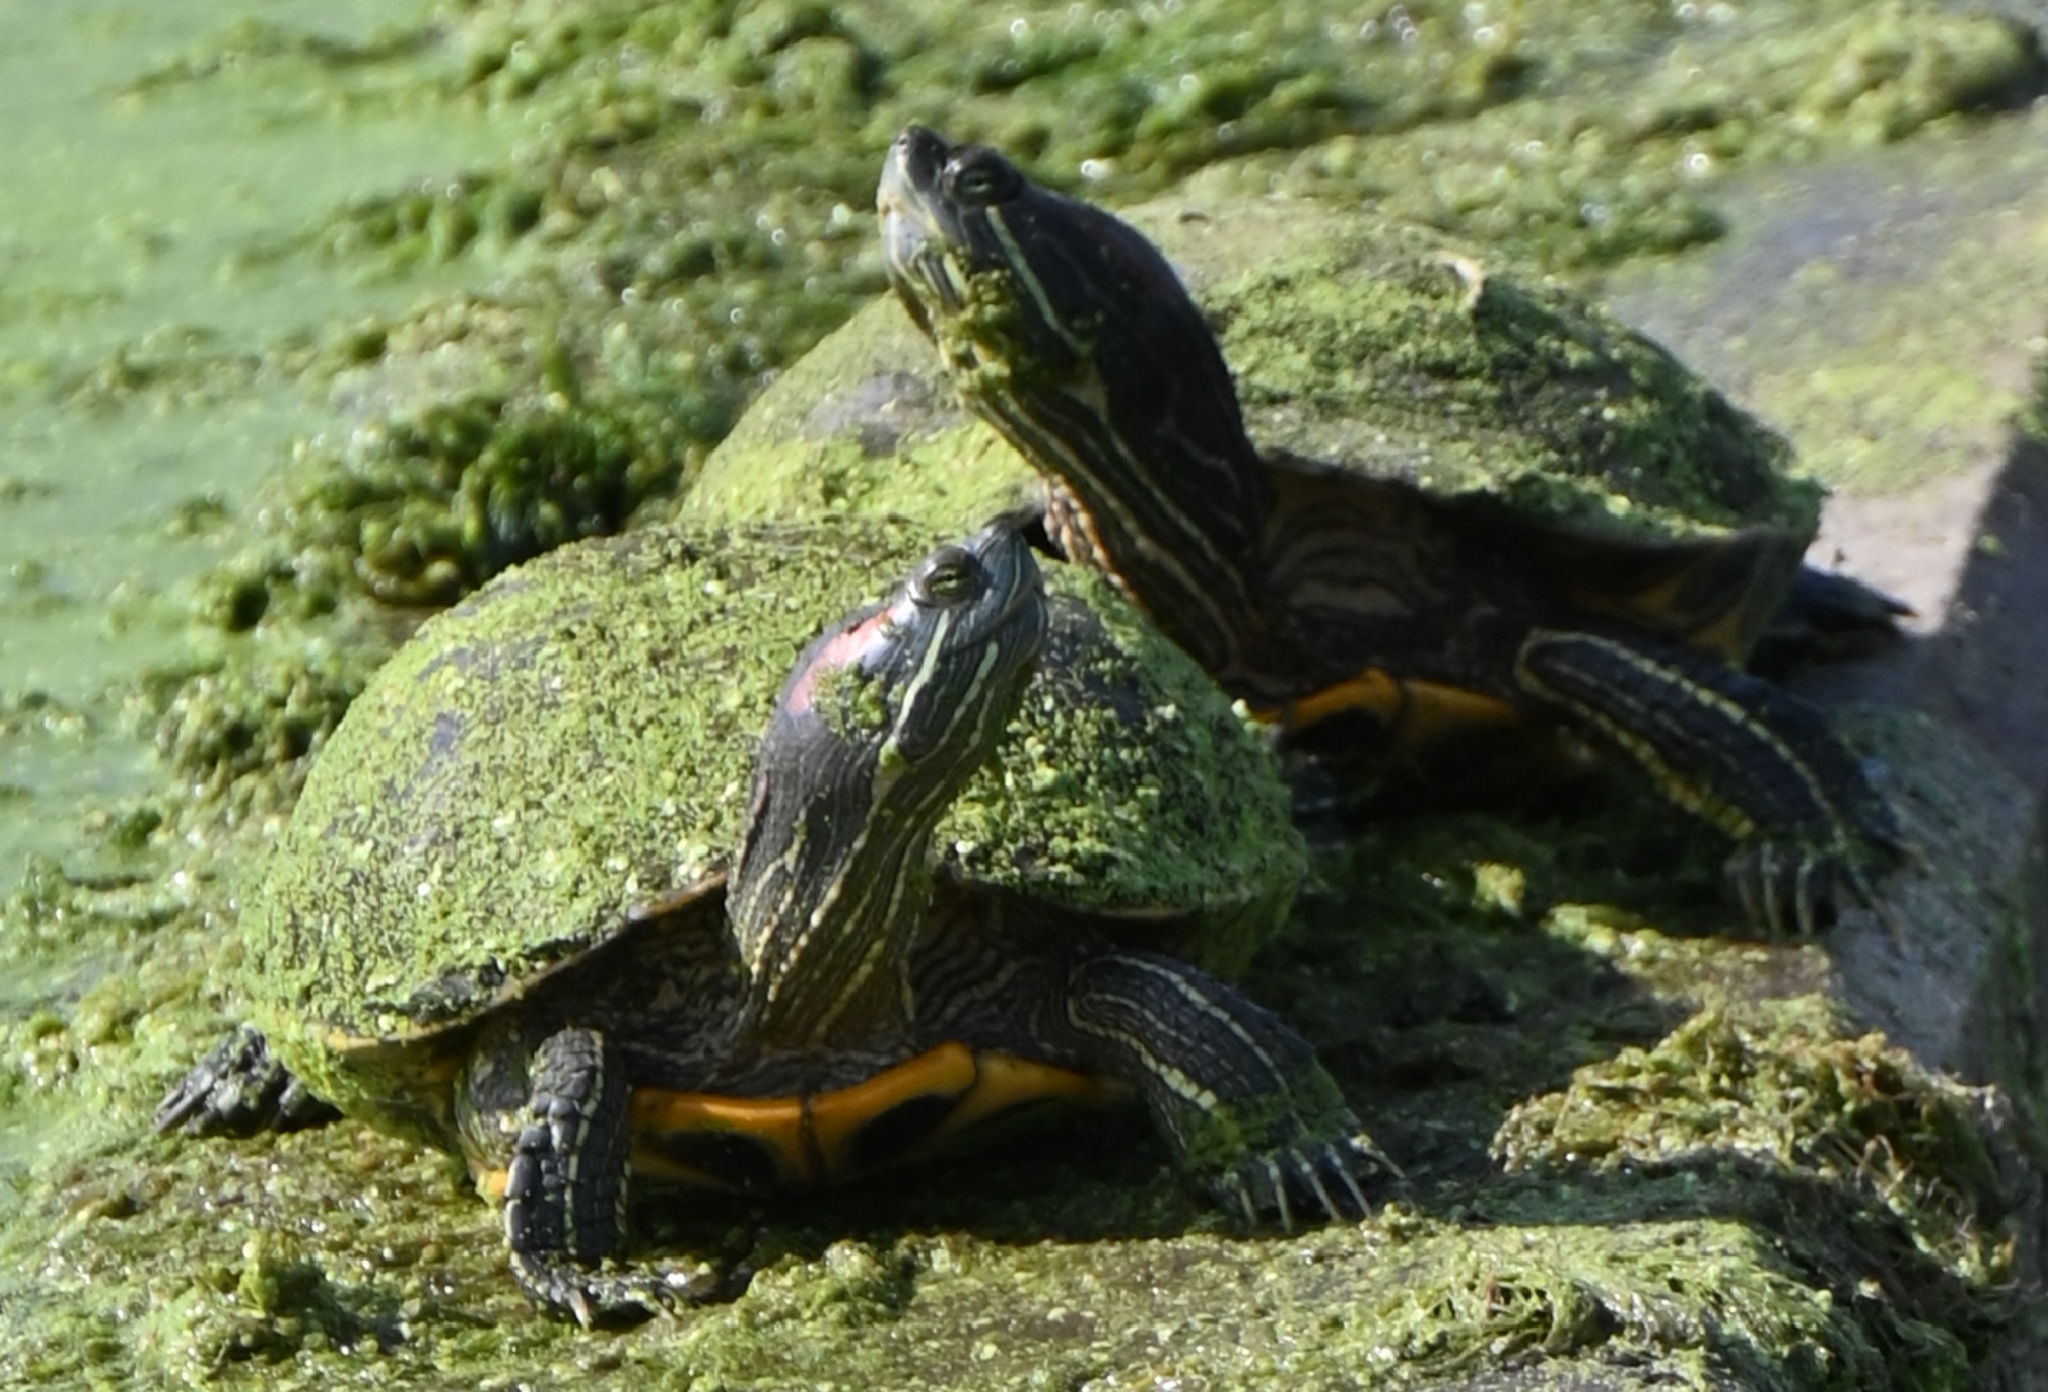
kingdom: Animalia
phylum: Chordata
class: Testudines
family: Emydidae
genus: Trachemys
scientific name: Trachemys scripta
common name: Slider
